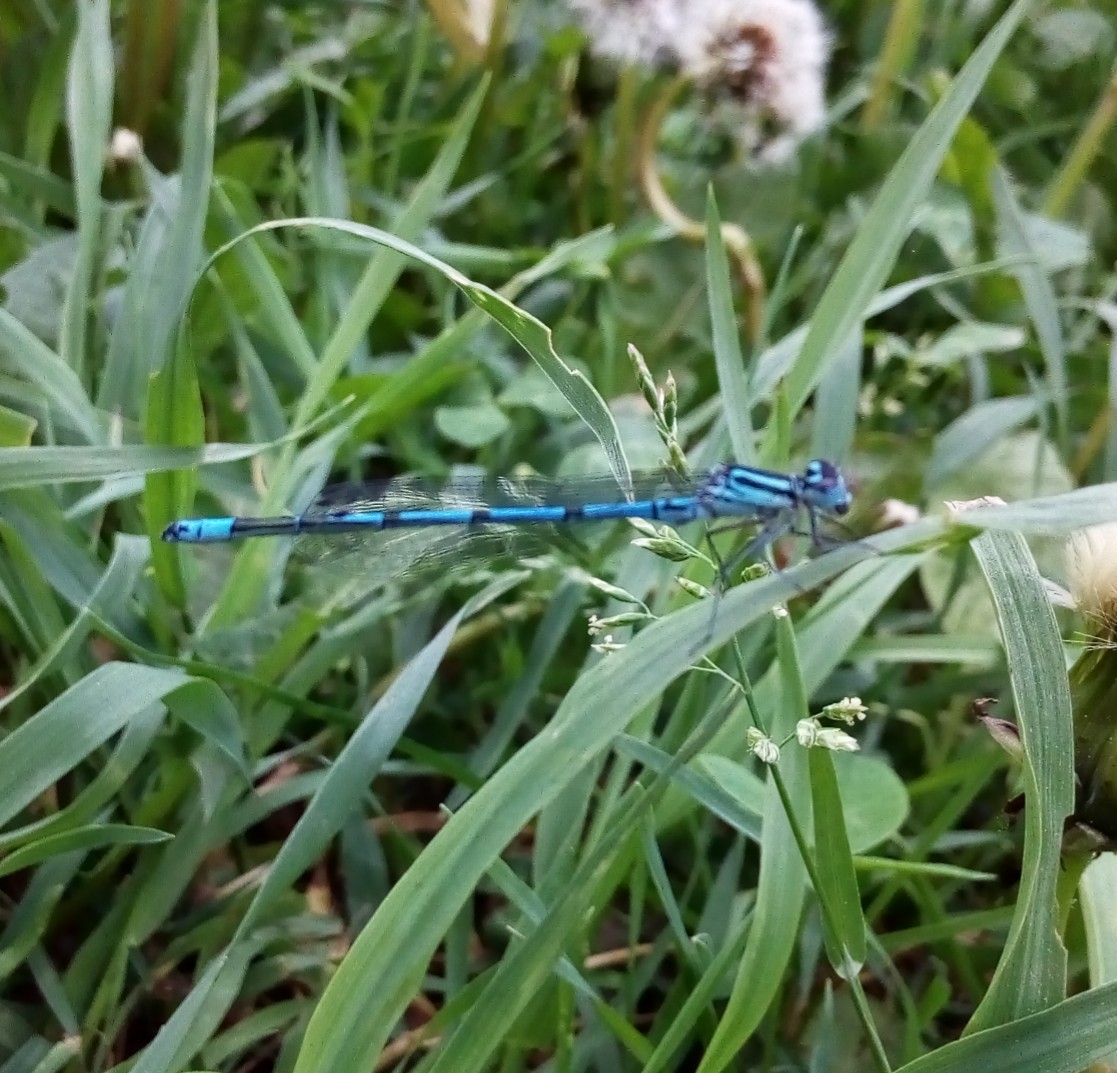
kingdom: Animalia
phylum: Arthropoda
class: Insecta
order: Odonata
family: Coenagrionidae
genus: Coenagrion
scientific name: Coenagrion puella
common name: Azure damselfly
